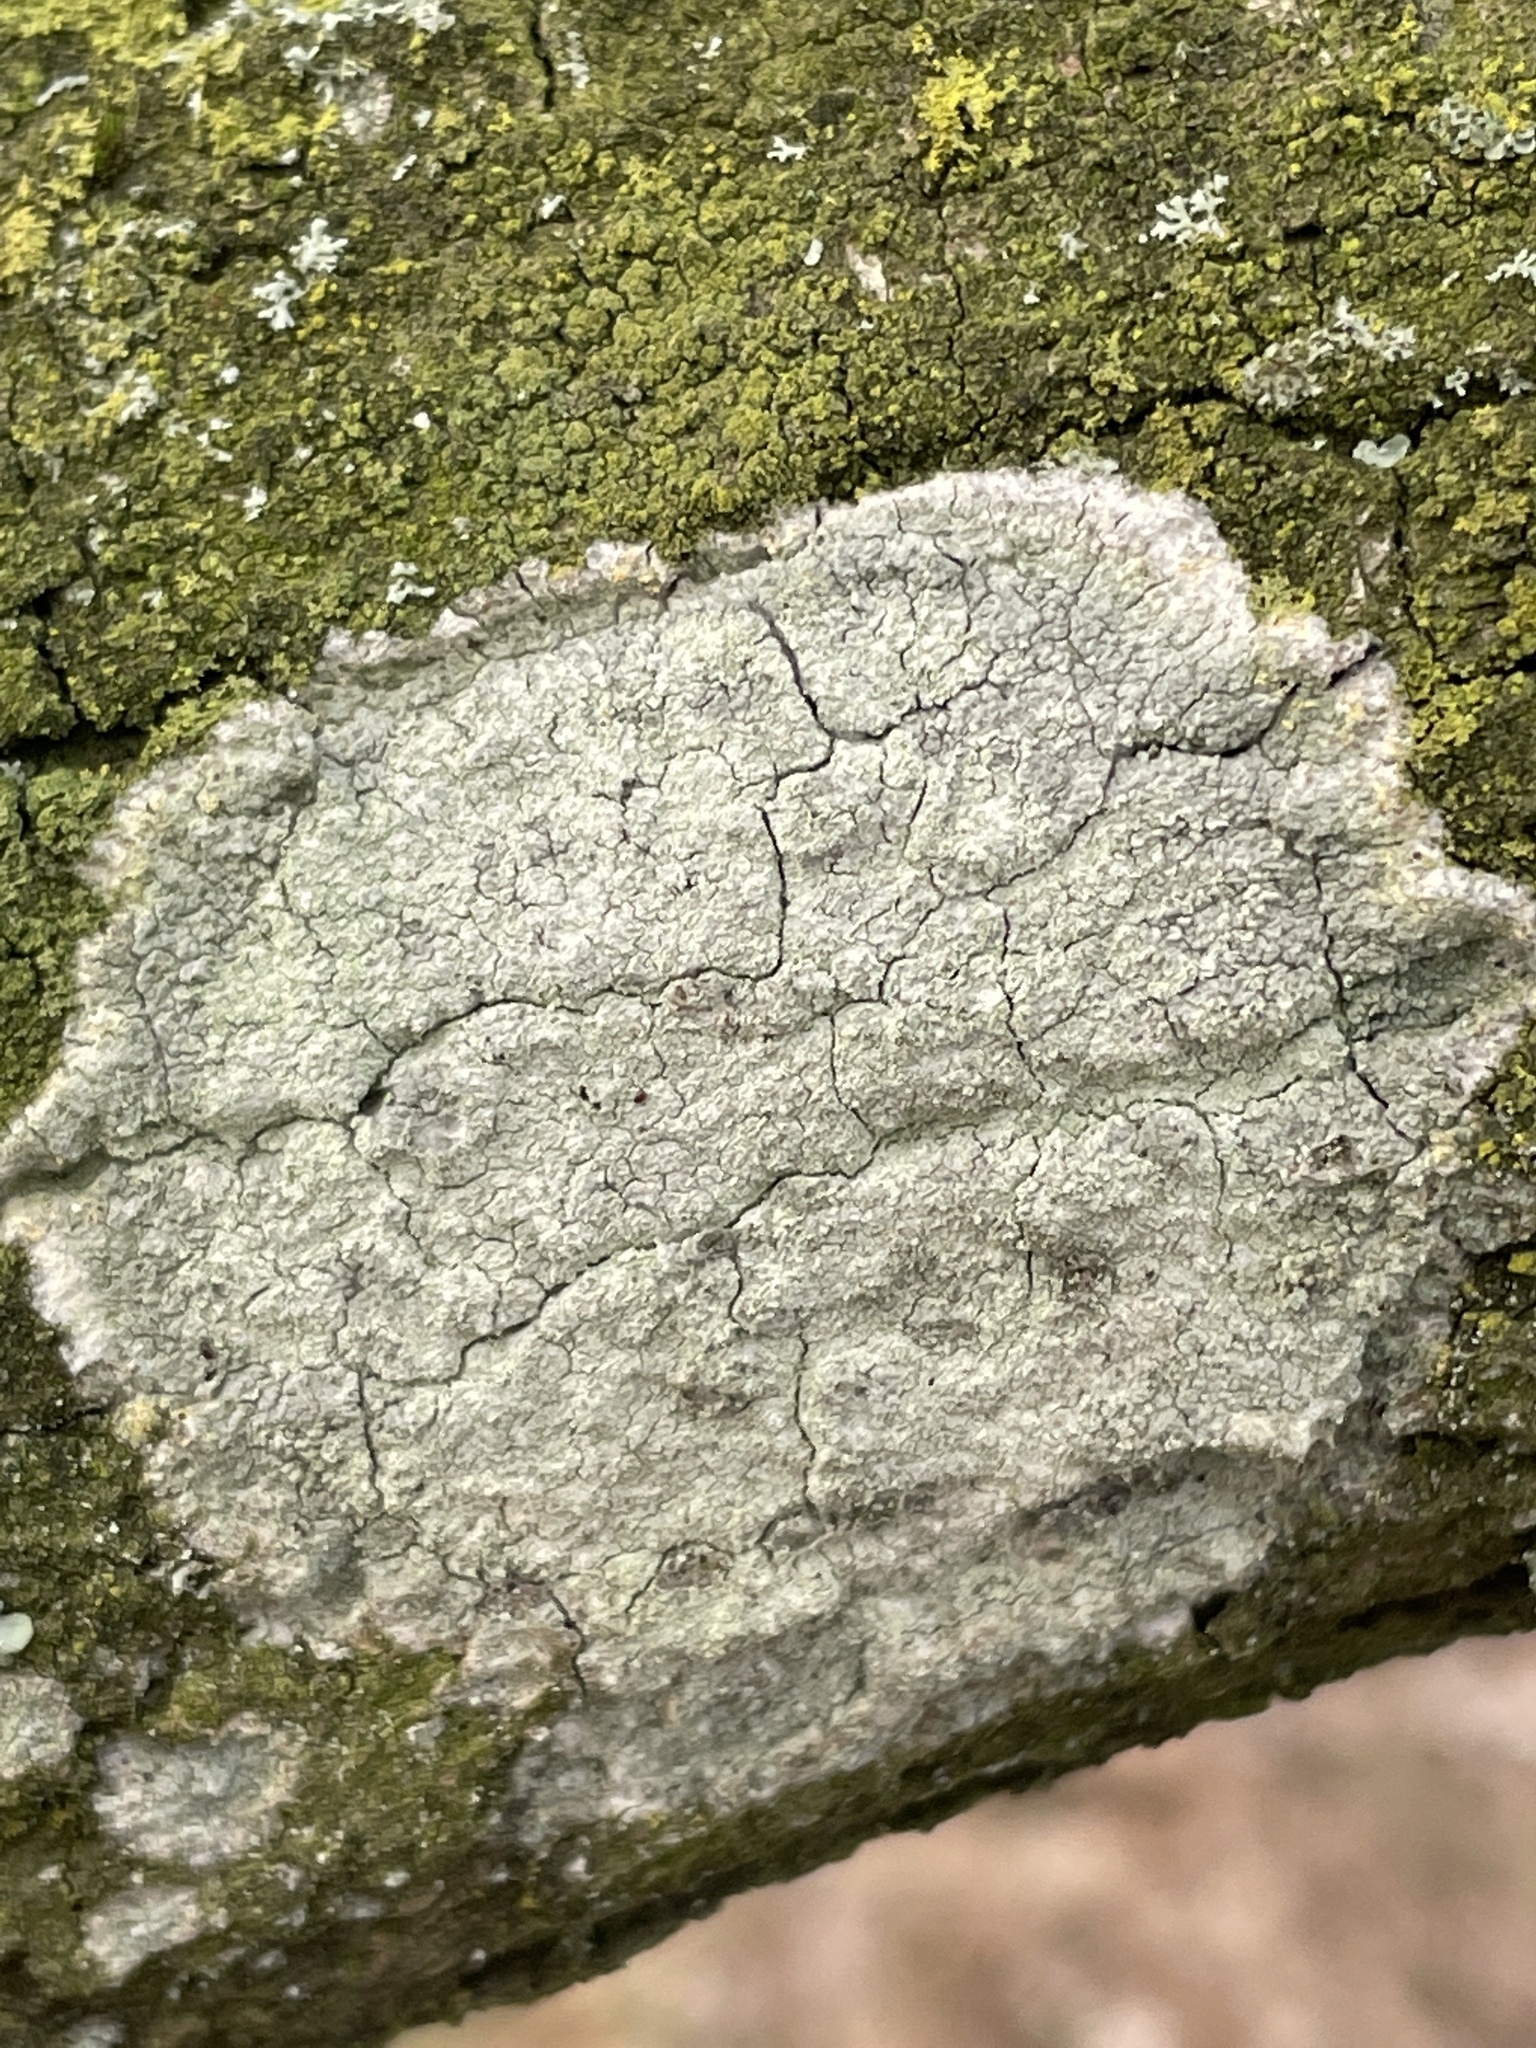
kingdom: Fungi
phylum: Ascomycota
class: Lecanoromycetes
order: Ostropales
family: Phlyctidaceae
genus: Phlyctis
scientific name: Phlyctis argena
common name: Whitewash lichen
